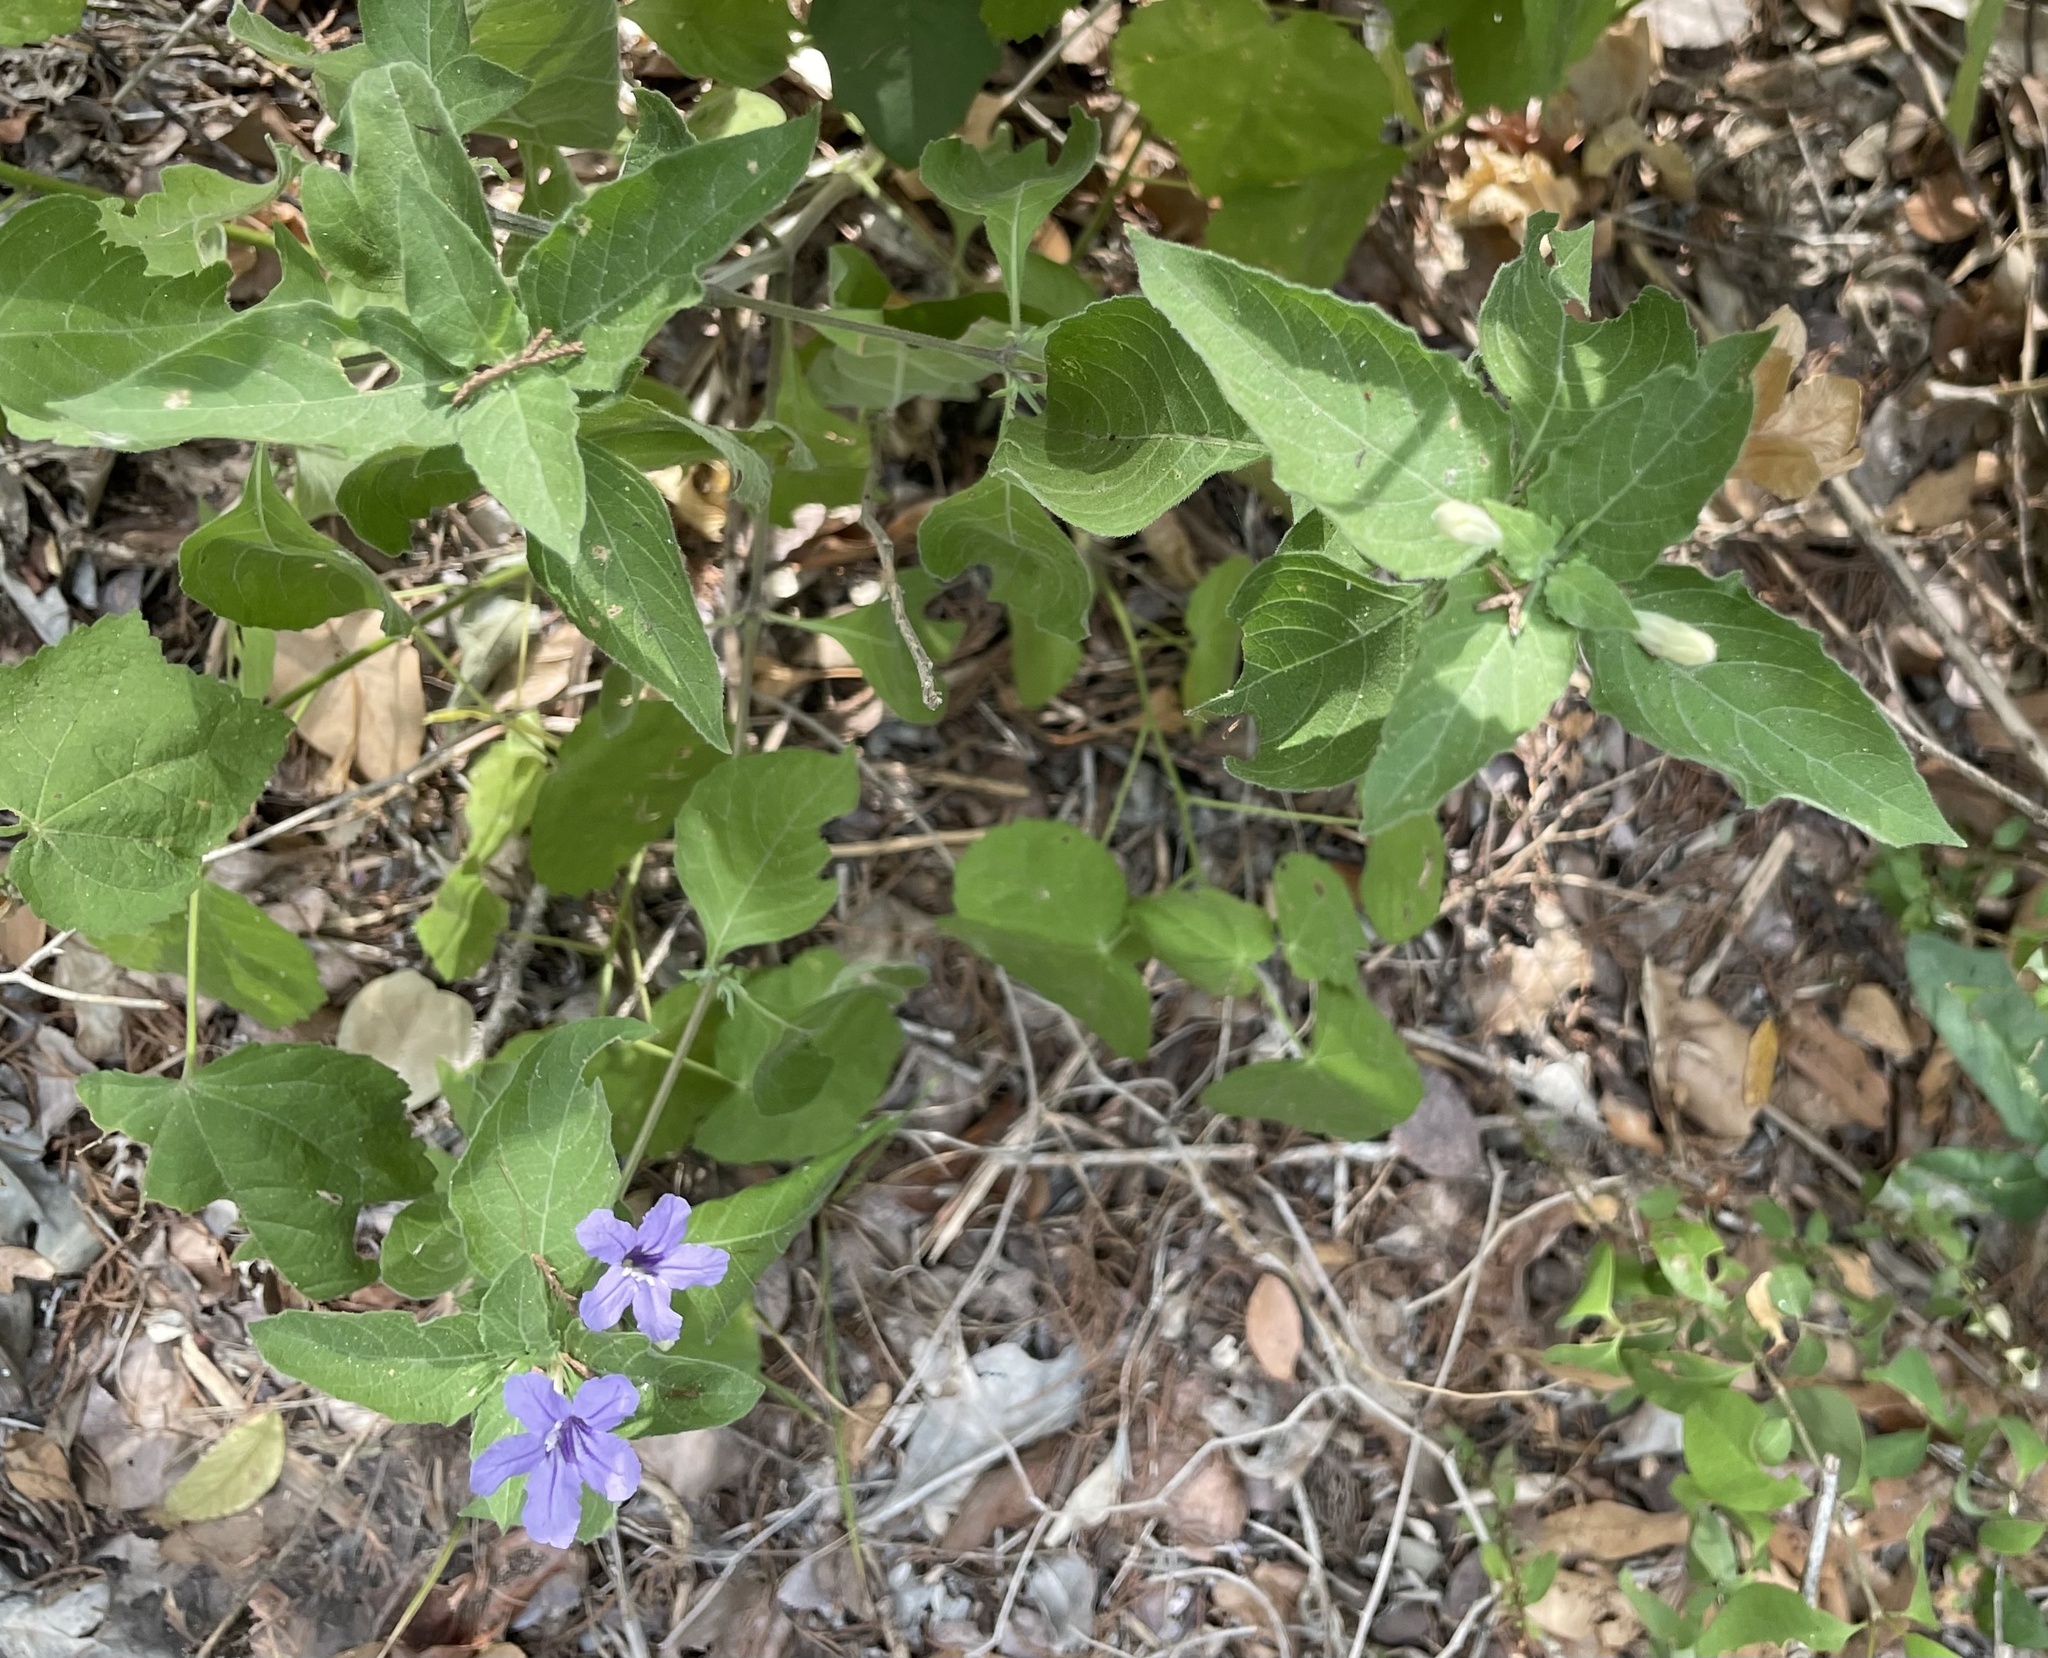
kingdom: Plantae
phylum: Tracheophyta
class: Magnoliopsida
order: Lamiales
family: Acanthaceae
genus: Ruellia
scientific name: Ruellia drummondiana
